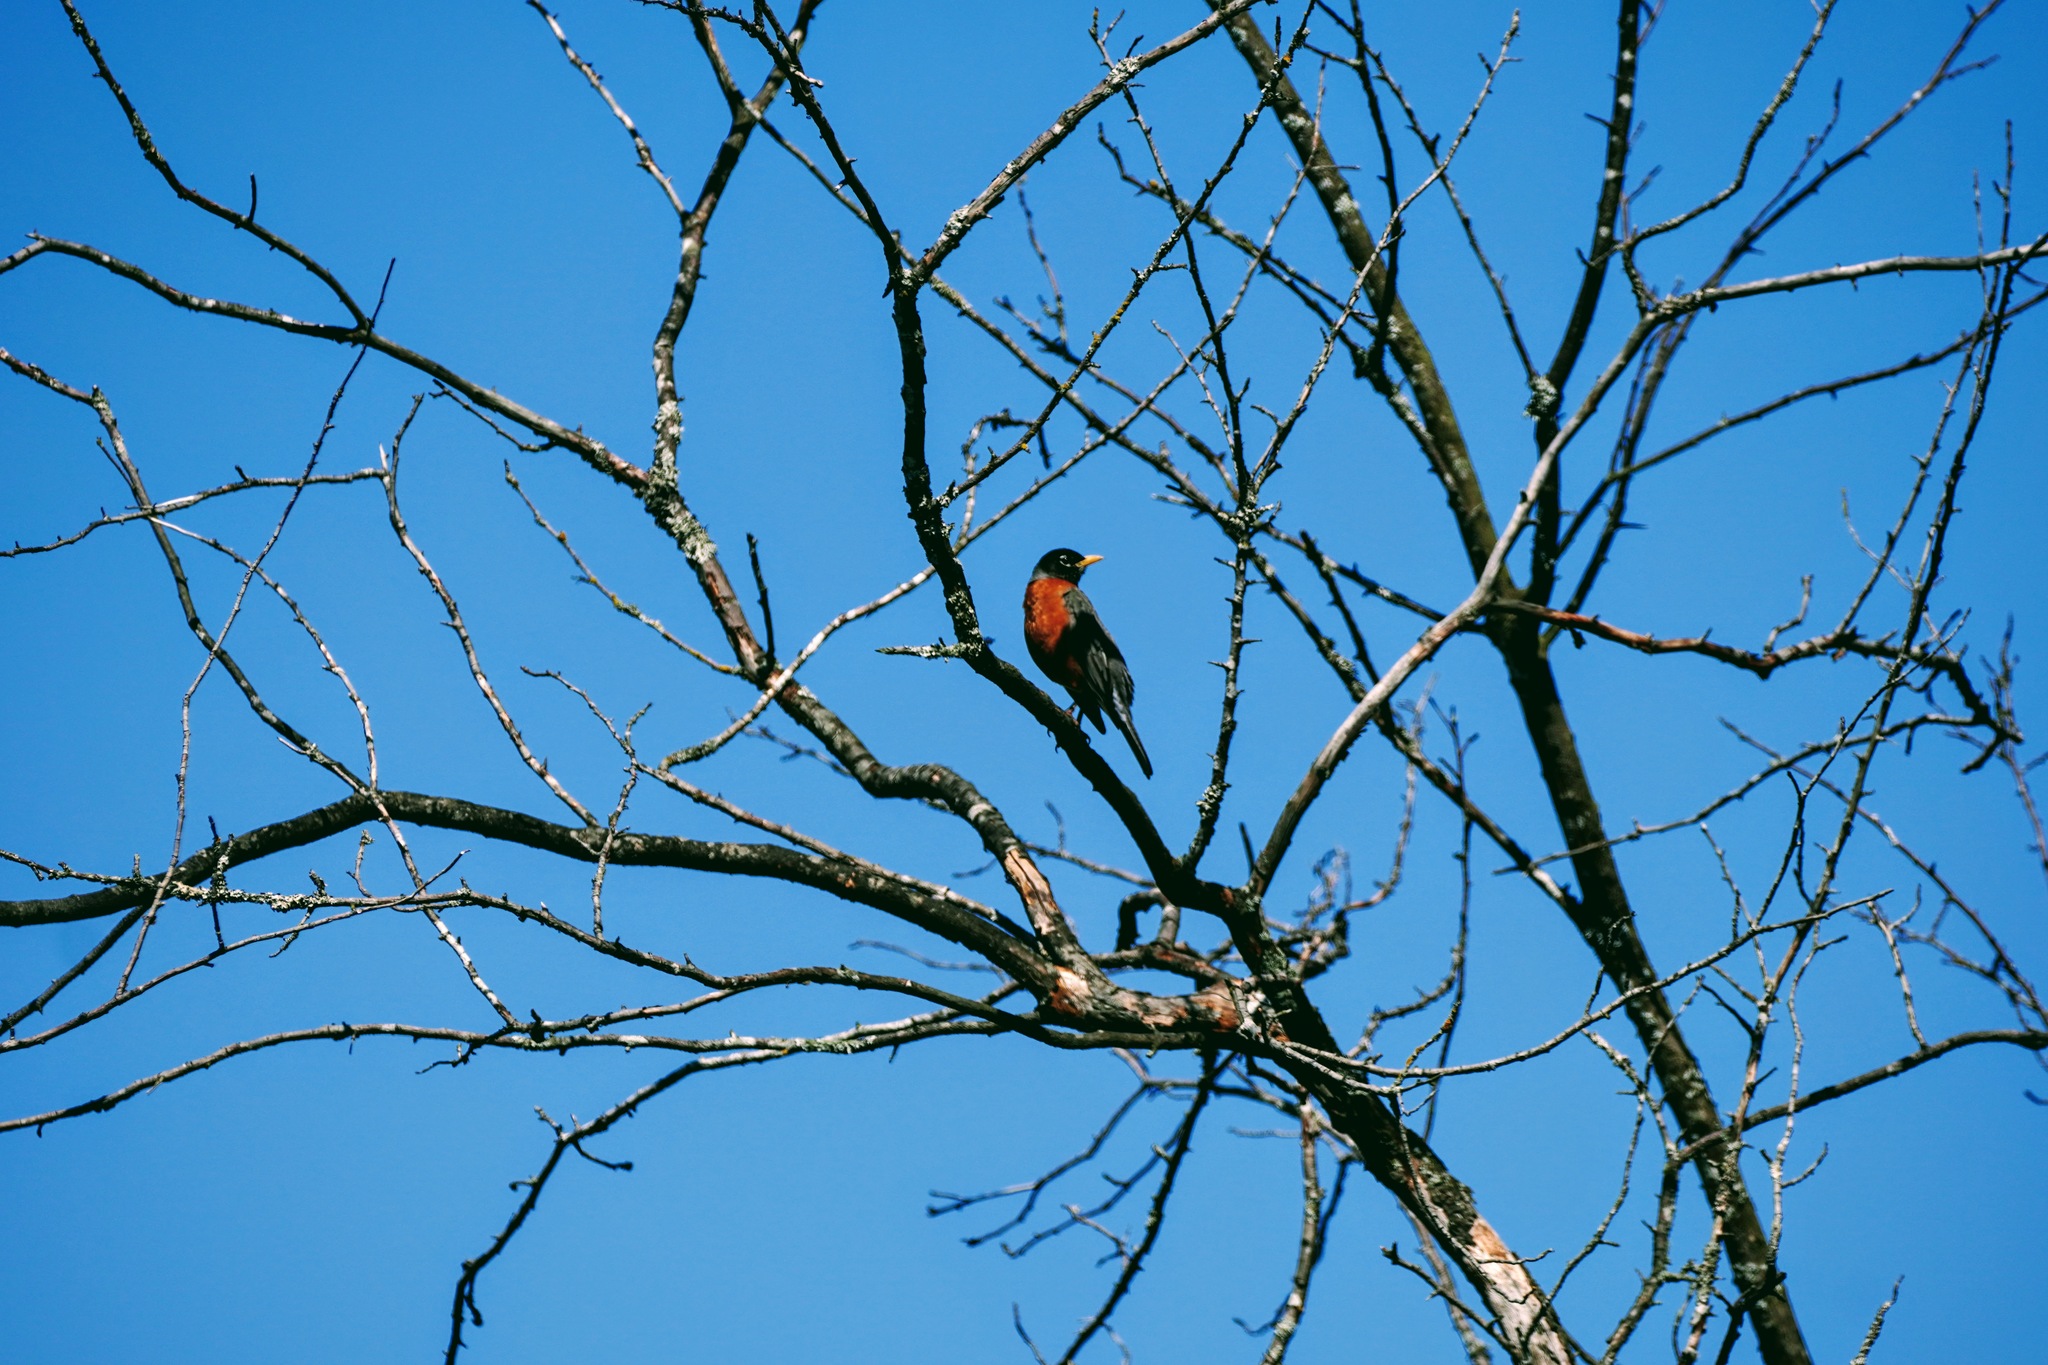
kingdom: Animalia
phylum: Chordata
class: Aves
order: Passeriformes
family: Turdidae
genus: Turdus
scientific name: Turdus migratorius
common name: American robin
